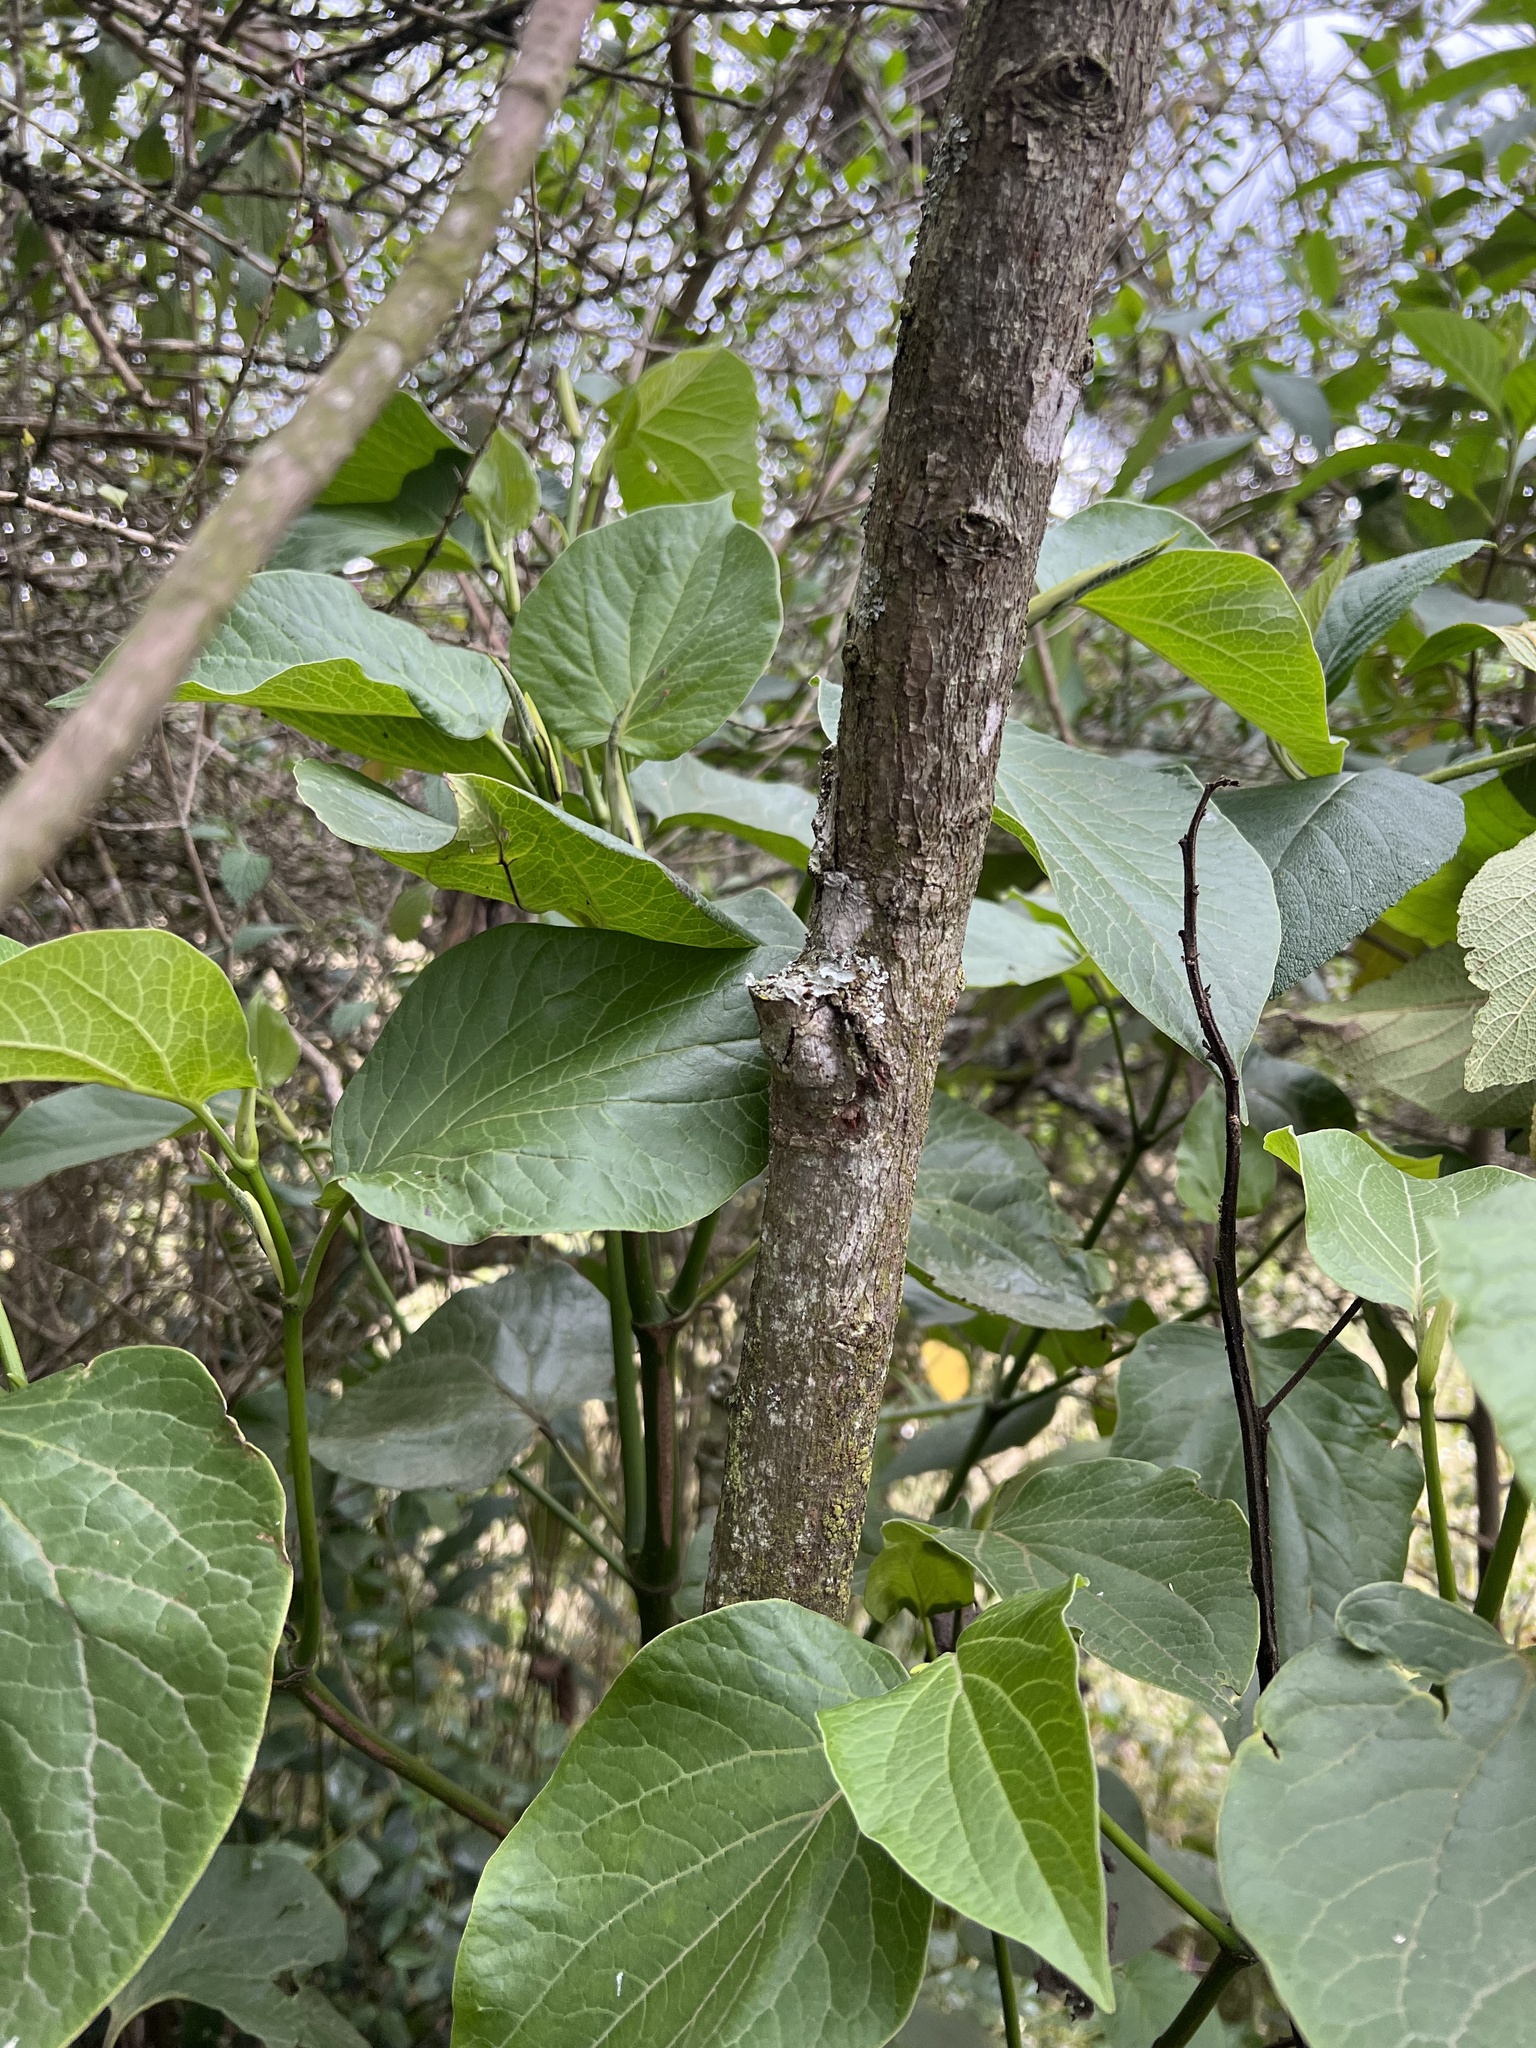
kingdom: Plantae
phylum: Tracheophyta
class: Magnoliopsida
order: Piperales
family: Piperaceae
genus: Piper
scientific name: Piper barbatum
